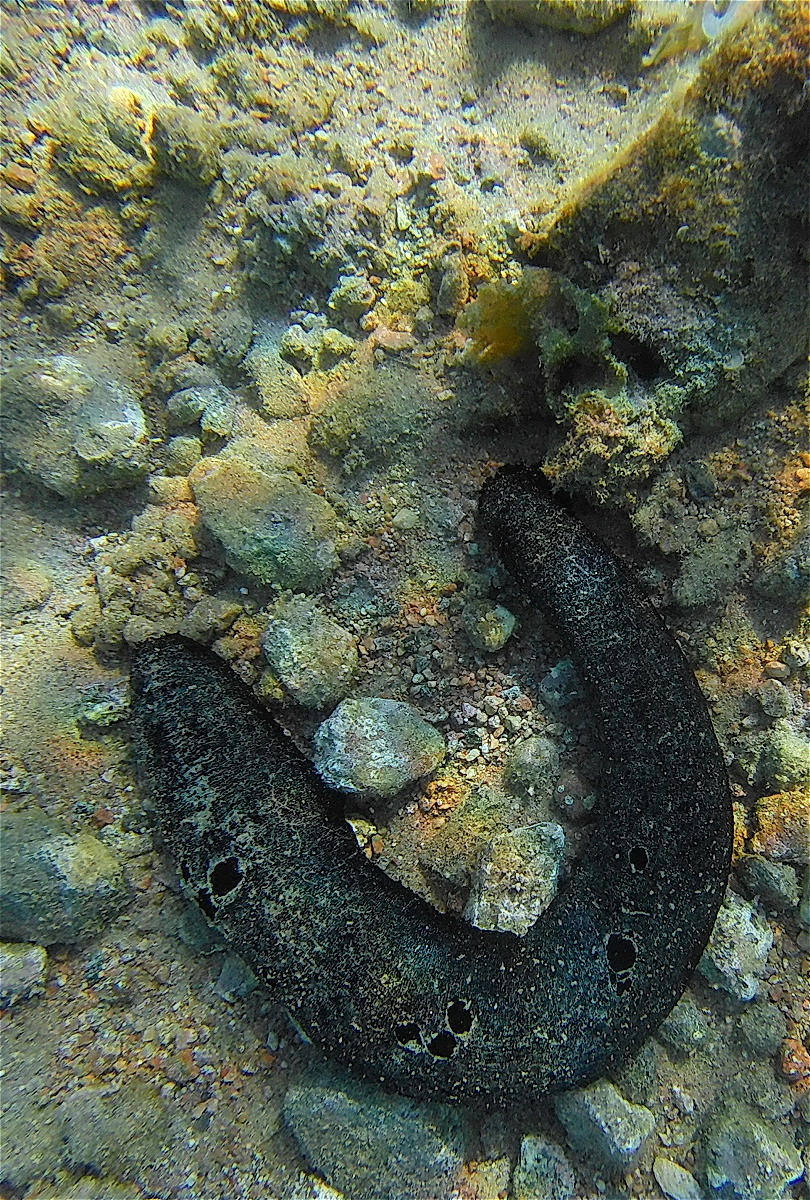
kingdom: Animalia
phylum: Echinodermata
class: Holothuroidea
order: Holothuriida
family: Holothuriidae
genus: Holothuria
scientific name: Holothuria atra
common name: Lollyfish
